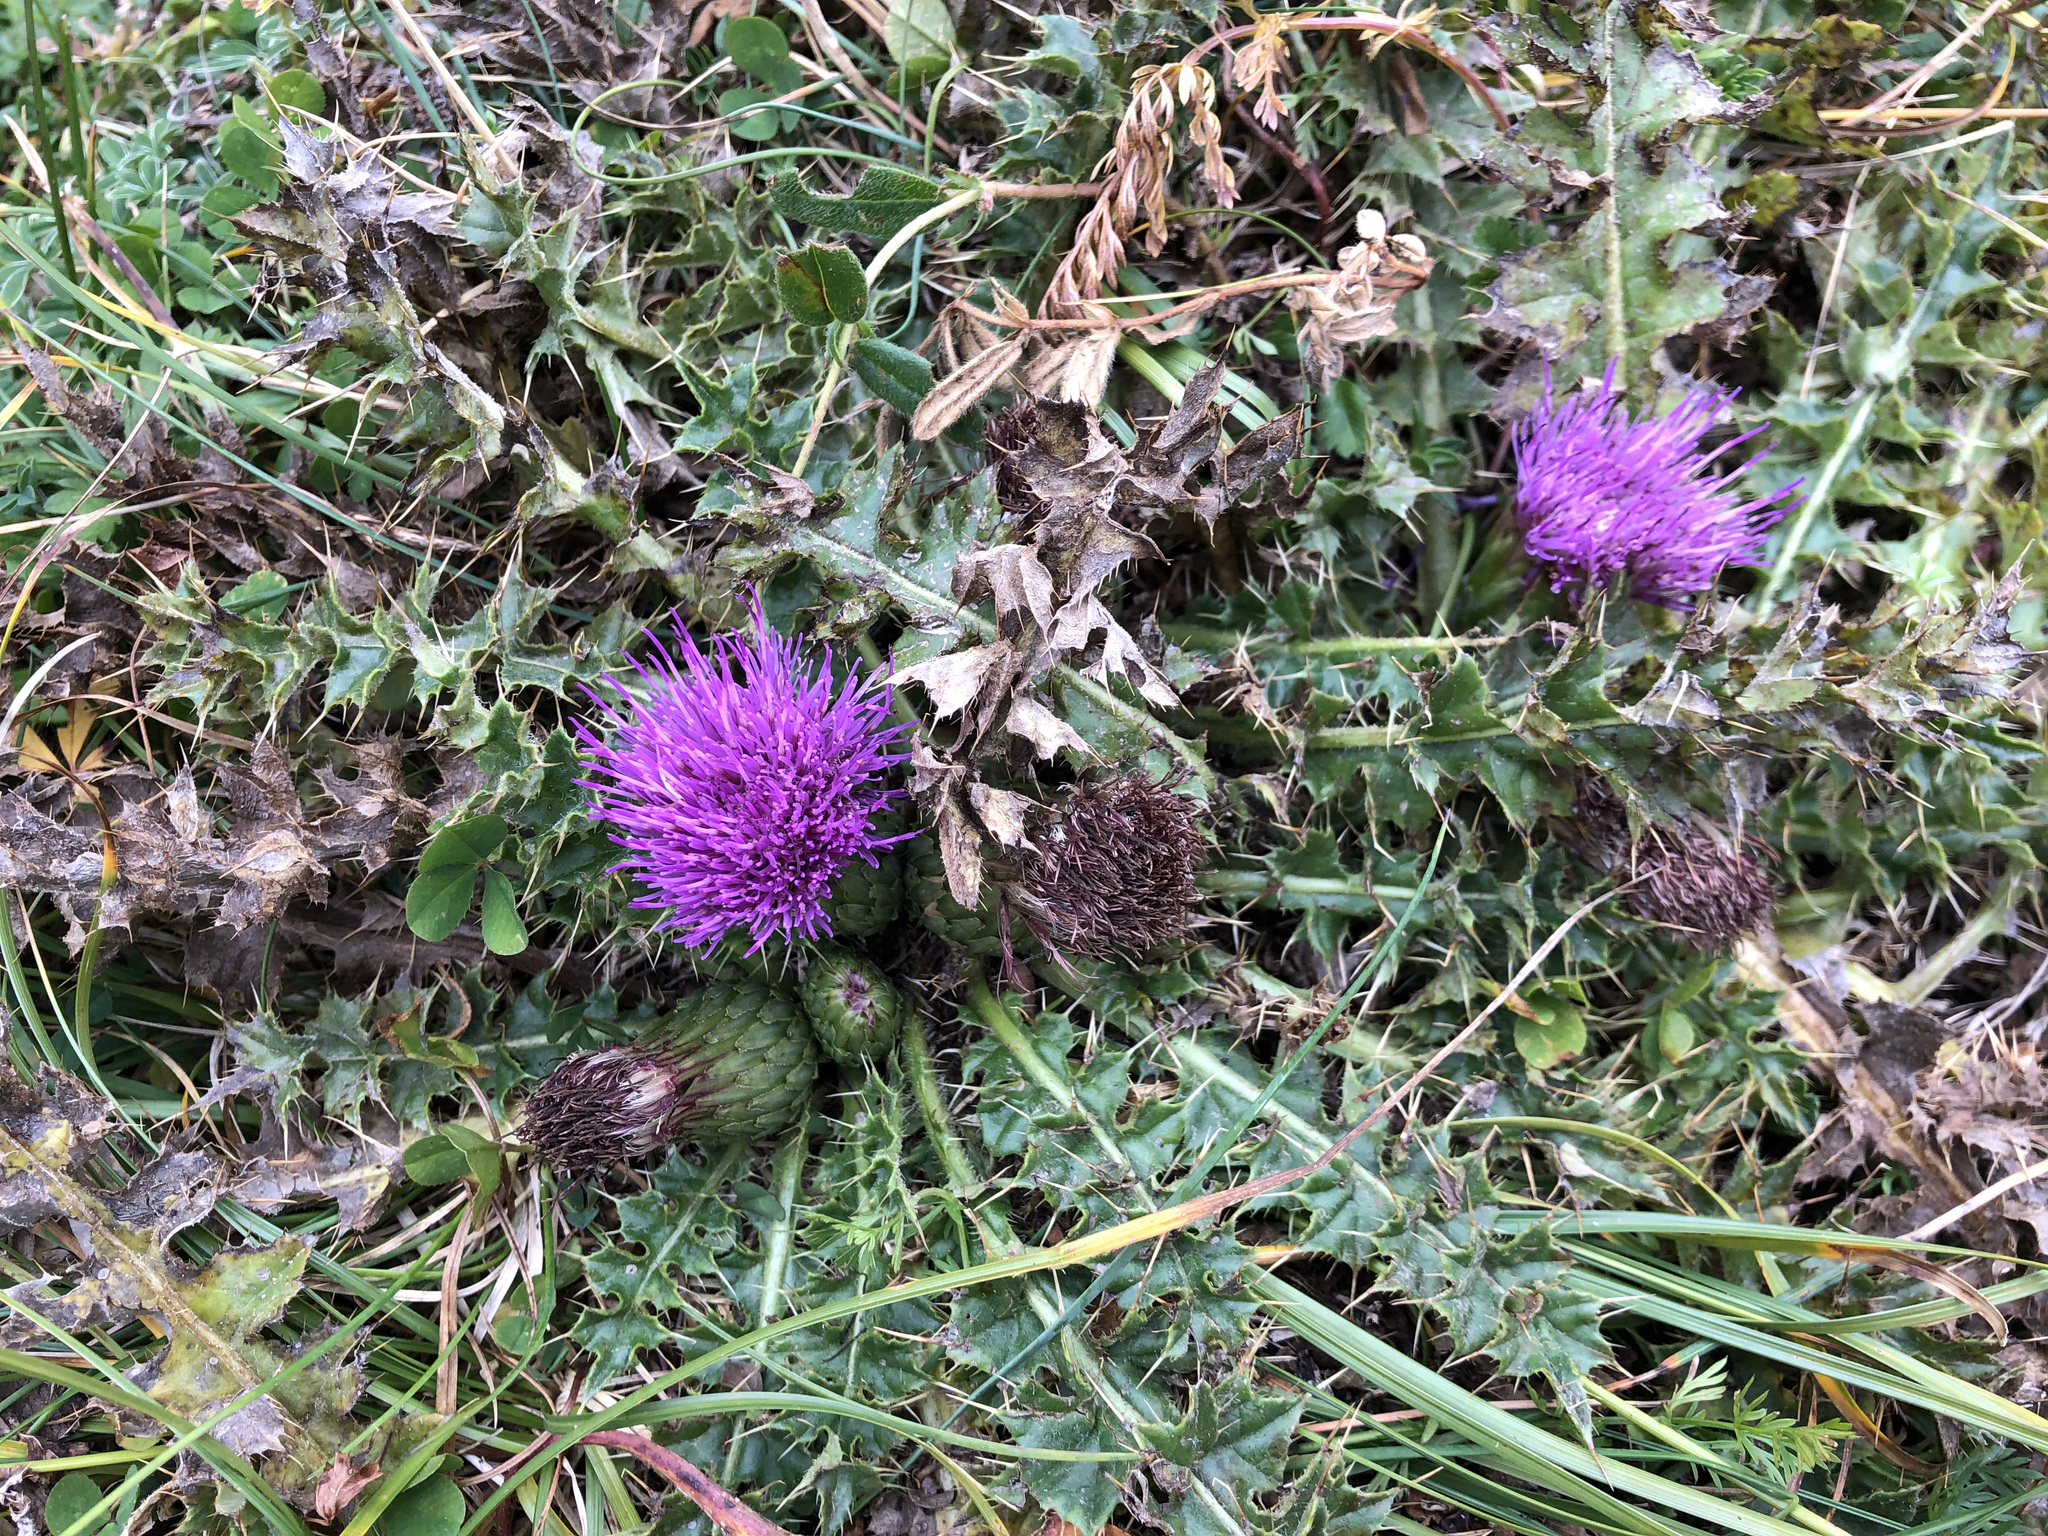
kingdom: Plantae
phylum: Tracheophyta
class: Magnoliopsida
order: Asterales
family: Asteraceae
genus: Cirsium
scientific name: Cirsium acaulon
